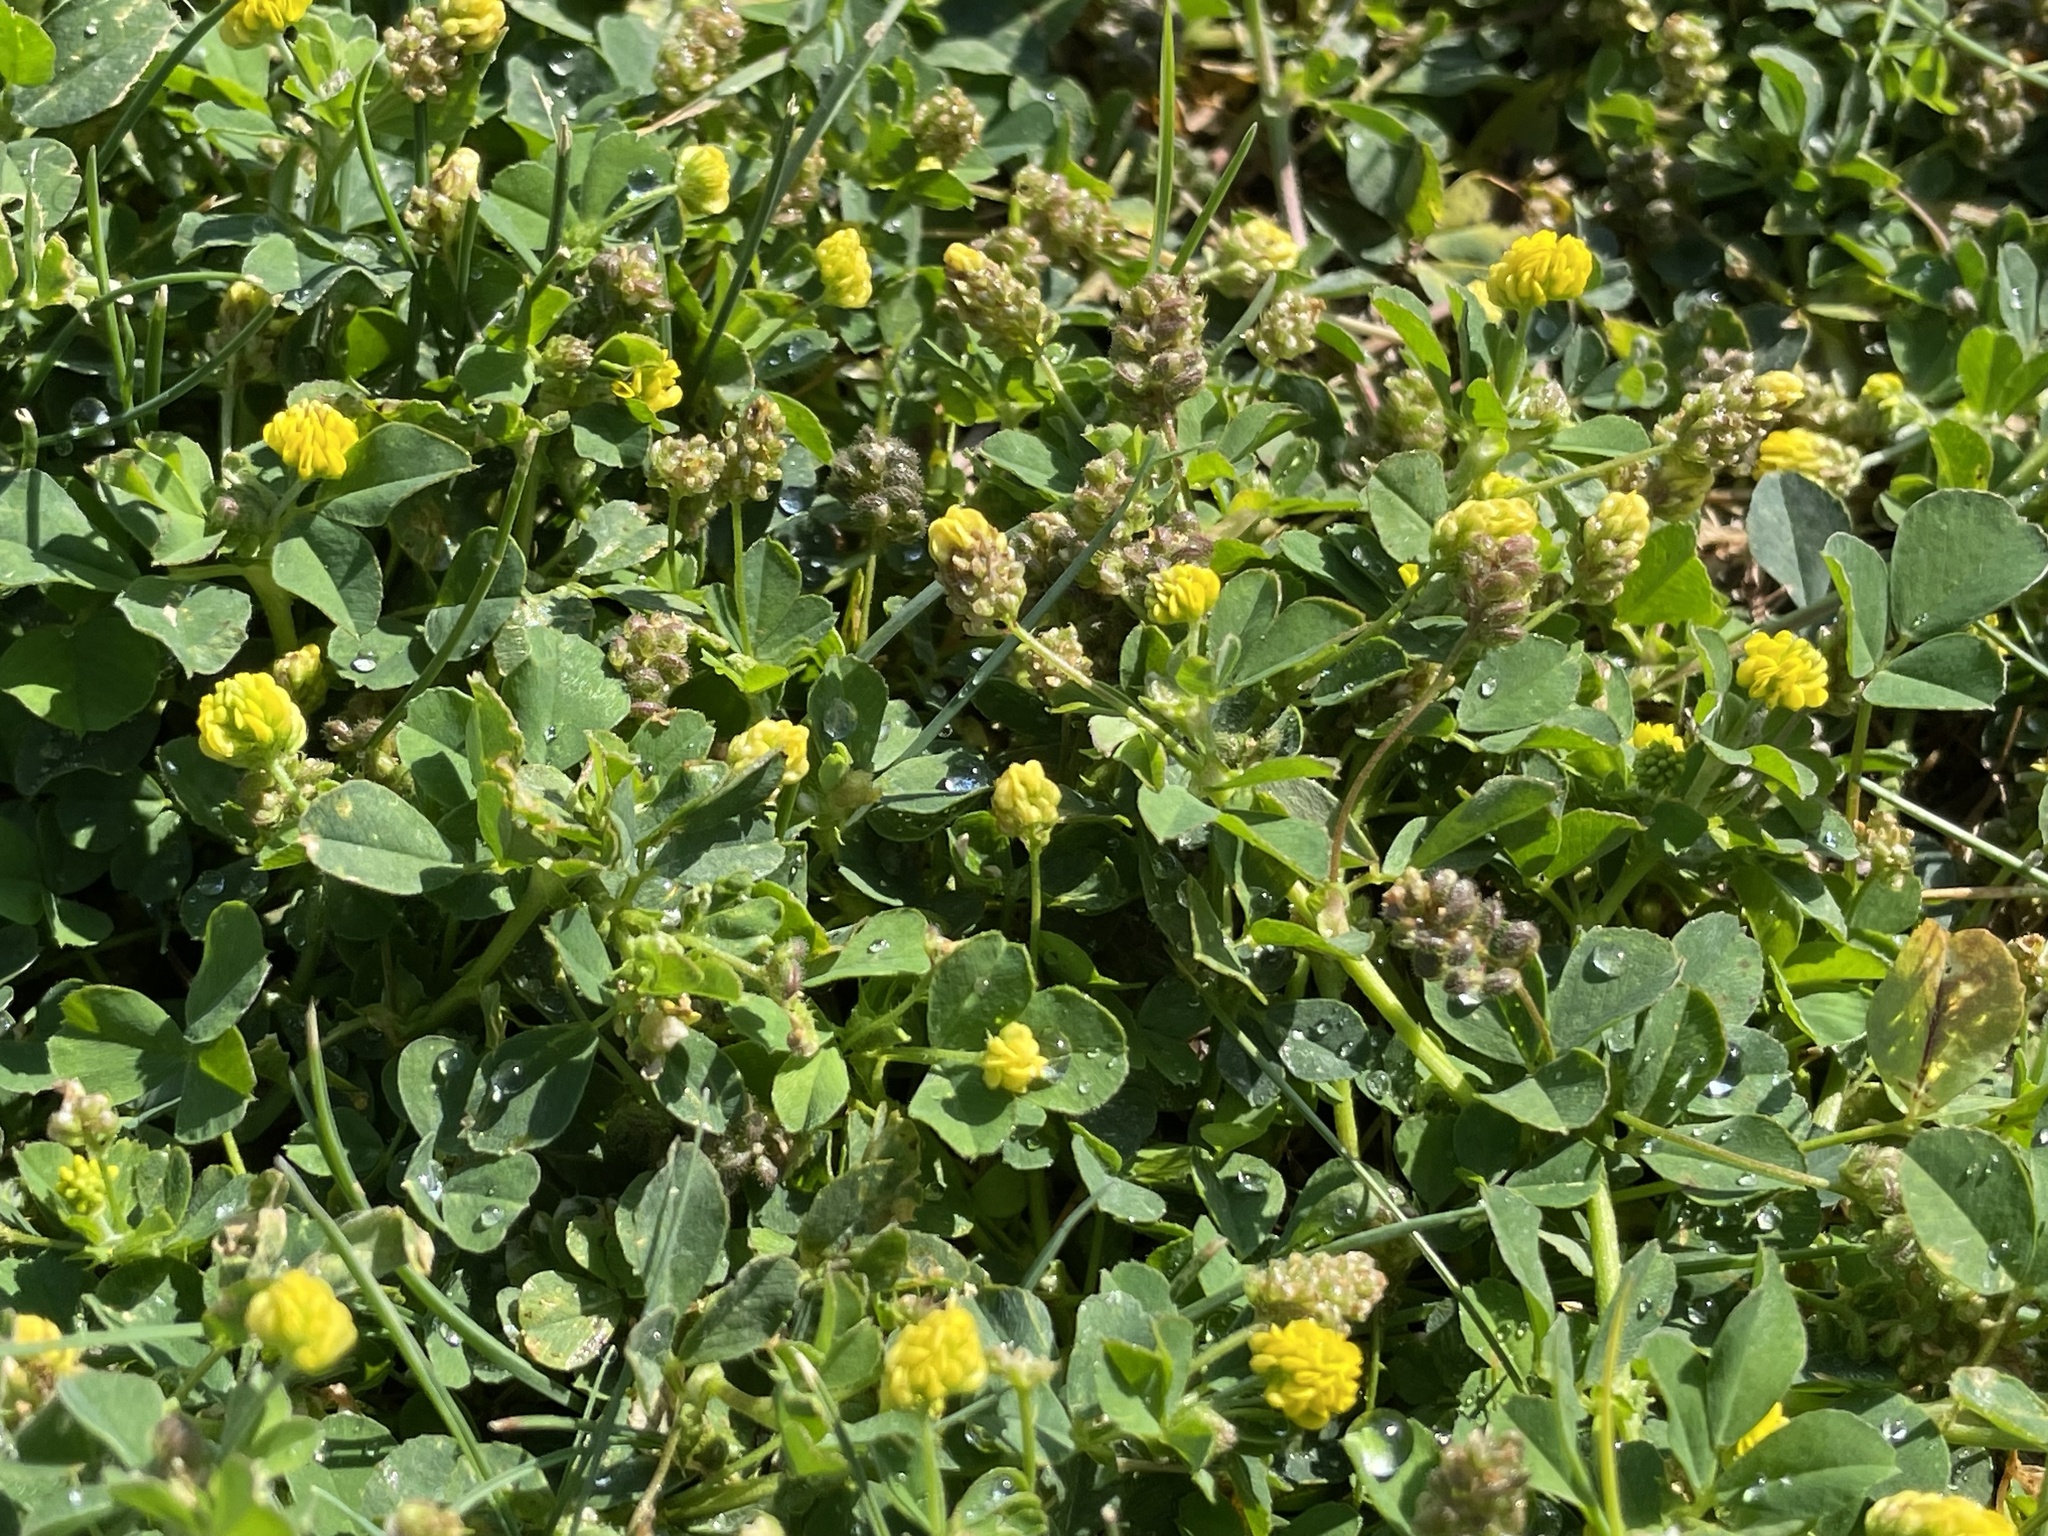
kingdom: Plantae
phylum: Tracheophyta
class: Magnoliopsida
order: Fabales
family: Fabaceae
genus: Medicago
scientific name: Medicago lupulina
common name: Black medick
